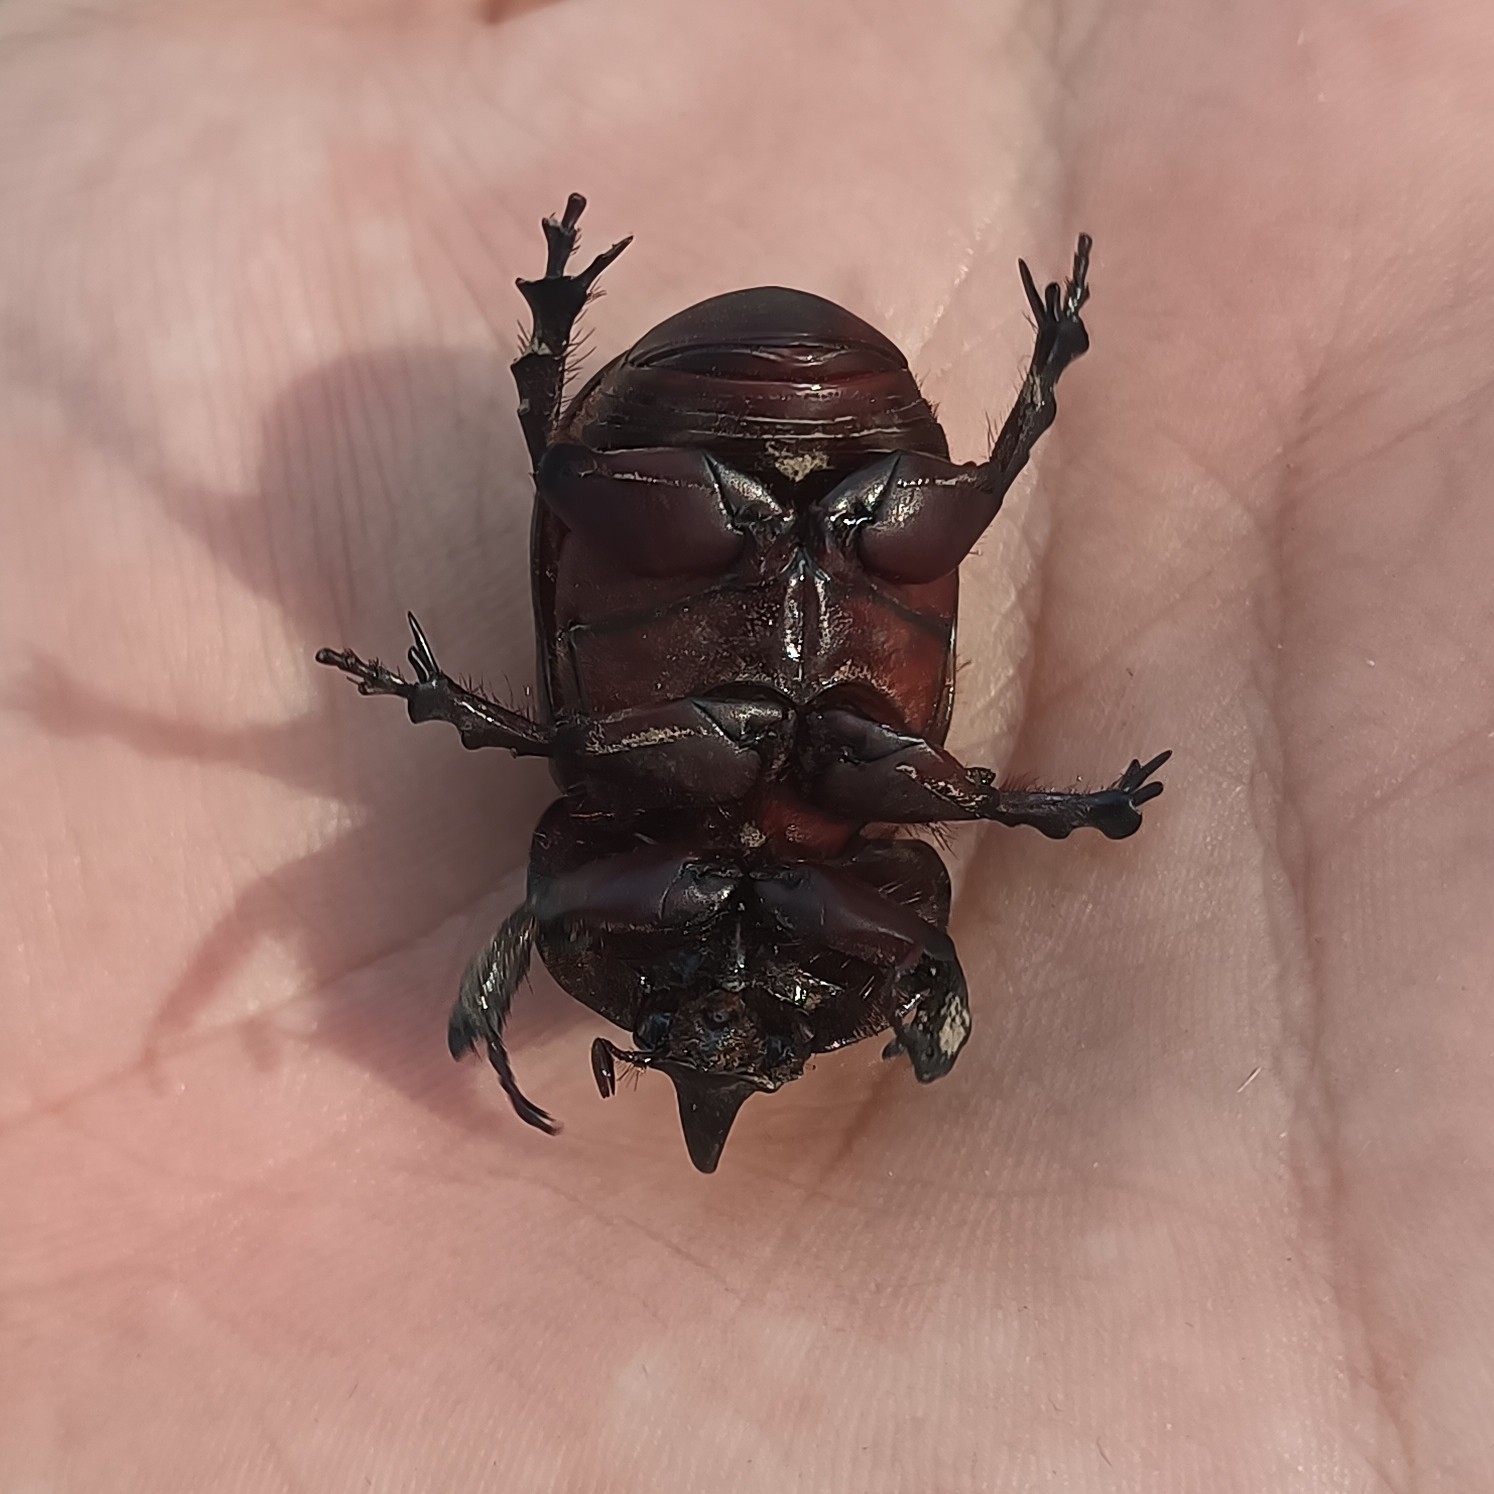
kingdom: Animalia
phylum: Arthropoda
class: Insecta
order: Coleoptera
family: Scarabaeidae
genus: Xyloryctes
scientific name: Xyloryctes thestalus
